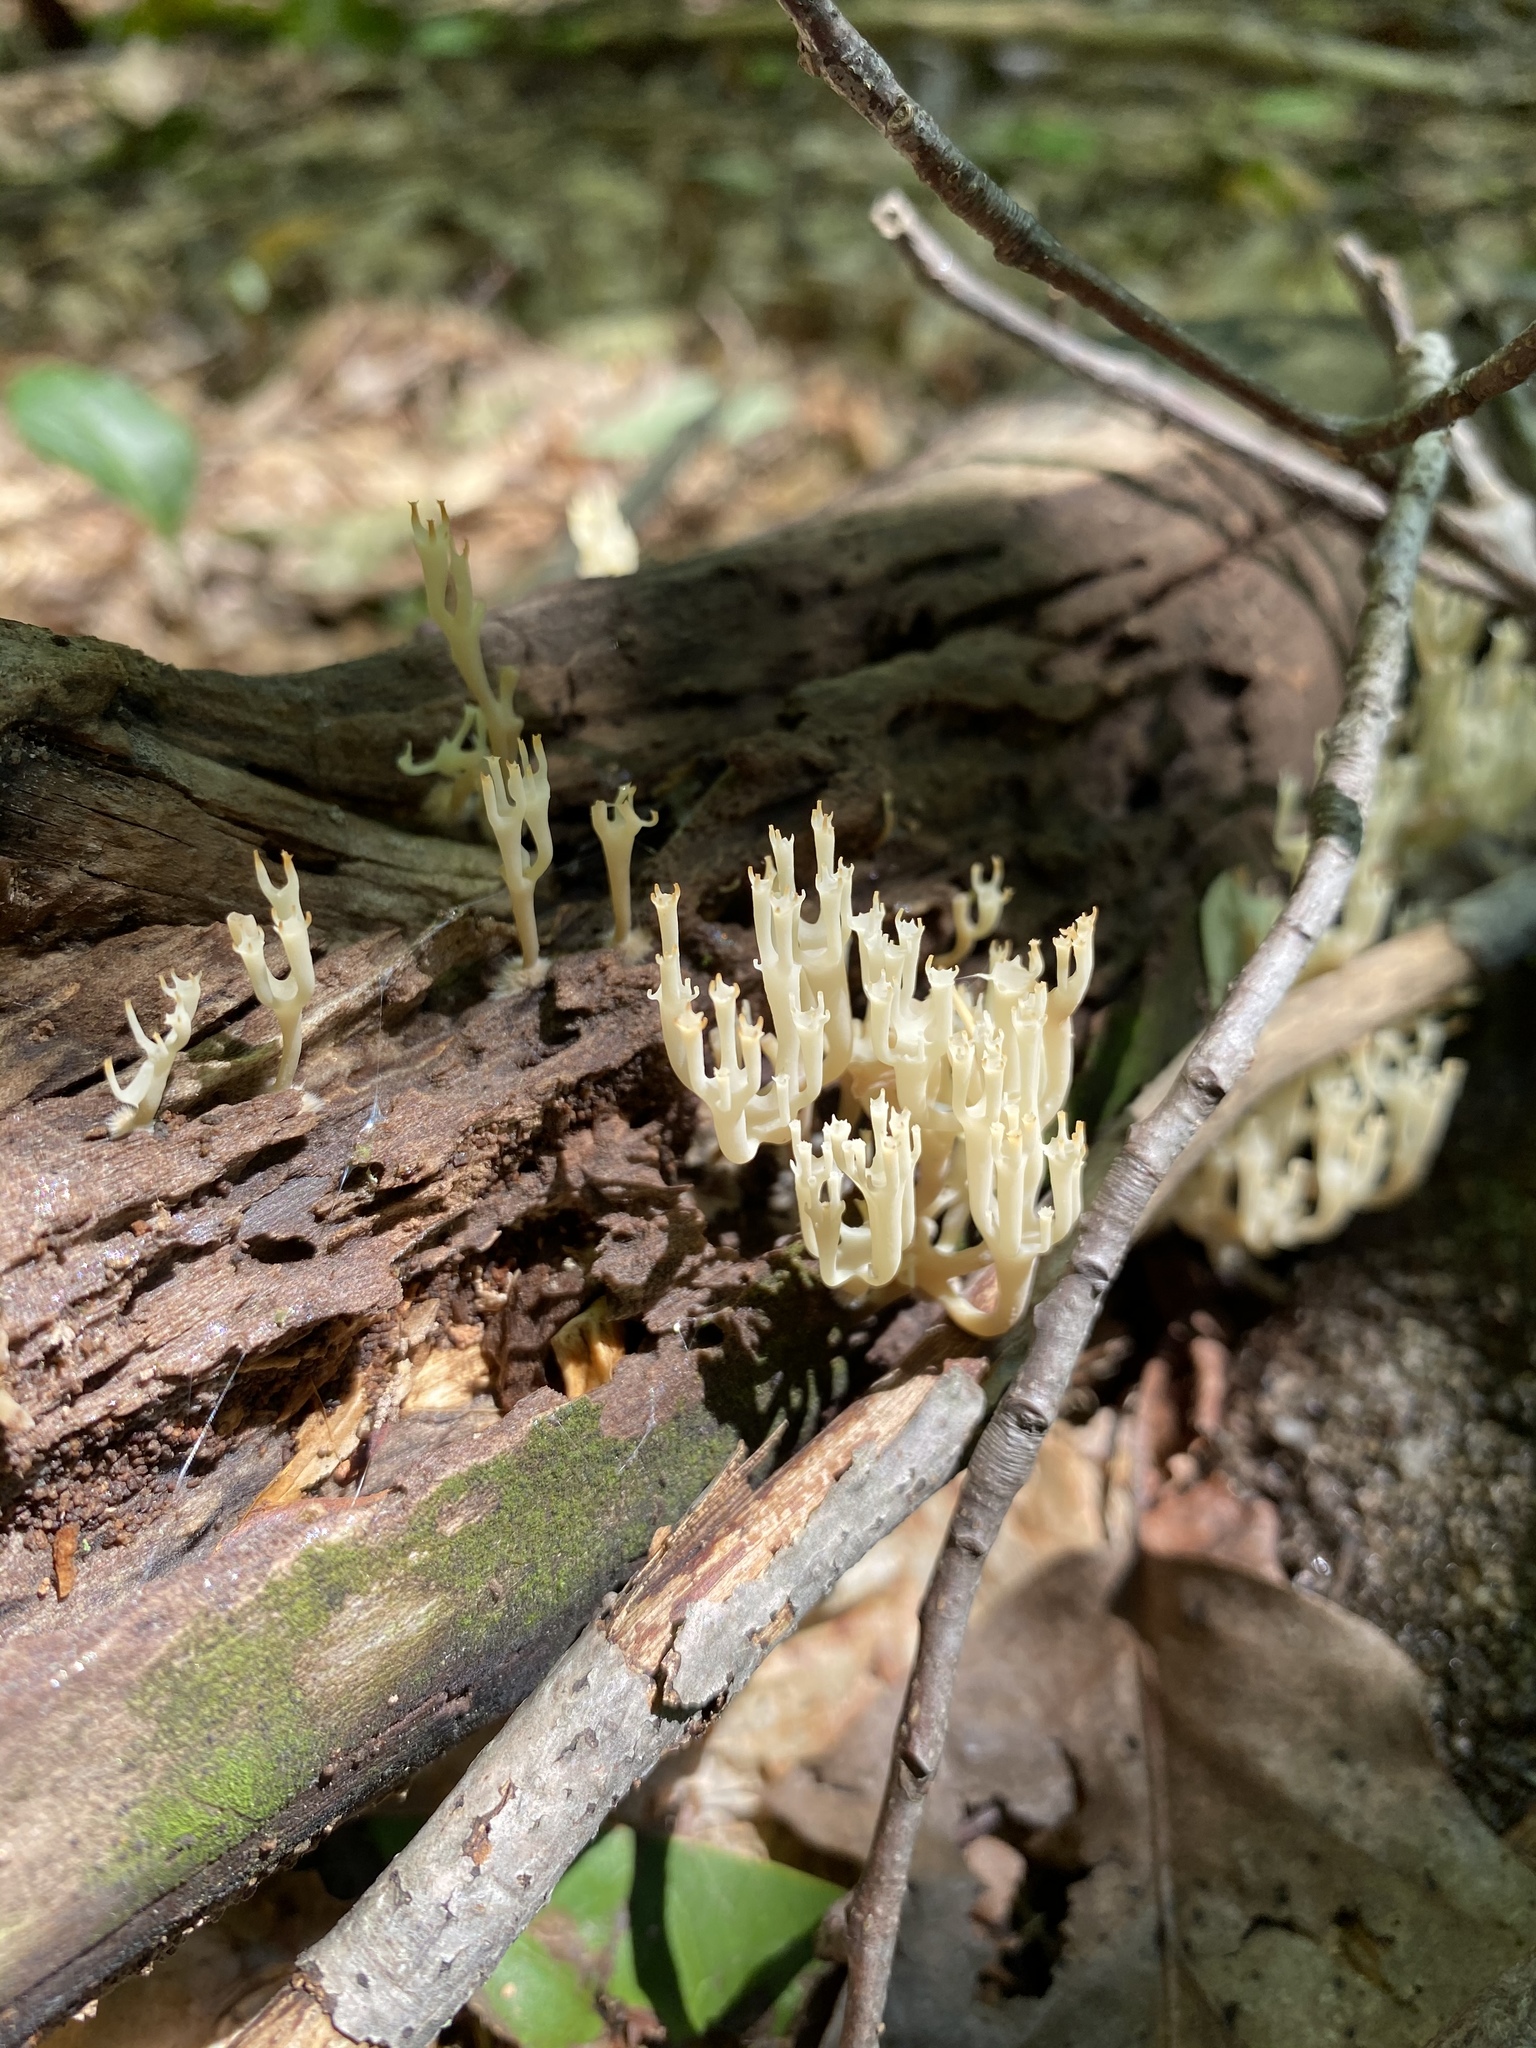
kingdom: Fungi
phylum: Basidiomycota
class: Agaricomycetes
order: Russulales
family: Auriscalpiaceae
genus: Artomyces
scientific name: Artomyces pyxidatus
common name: Crown-tipped coral fungus
